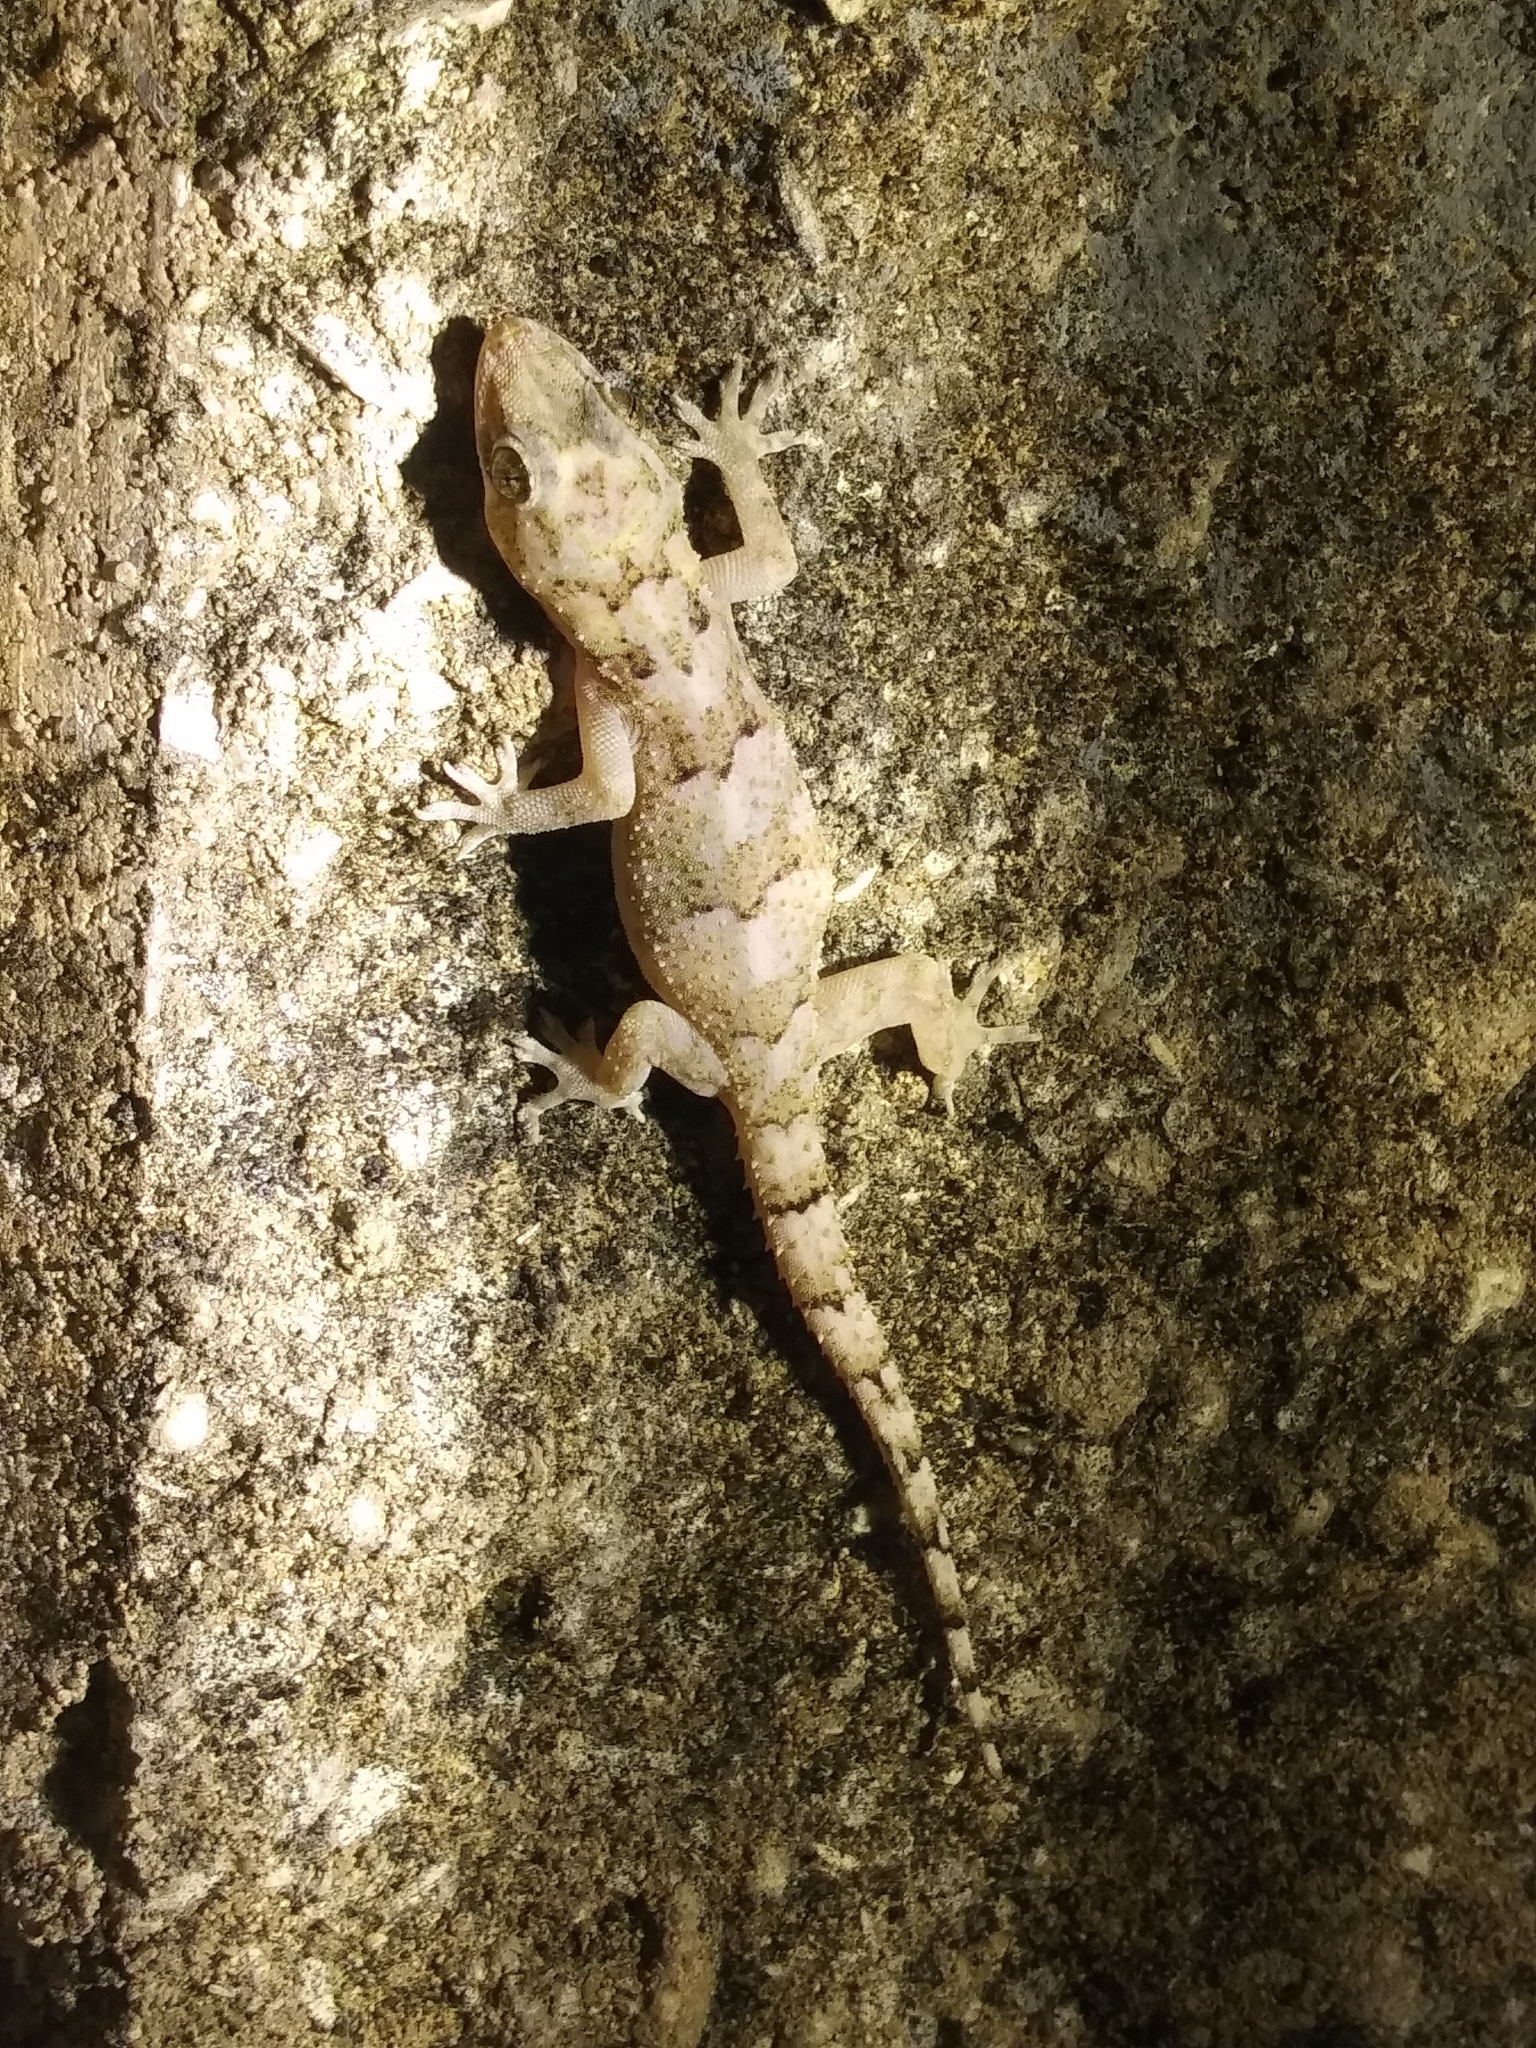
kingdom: Animalia
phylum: Chordata
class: Squamata
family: Gekkonidae
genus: Hemidactylus
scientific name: Hemidactylus mabouia
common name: House gecko
